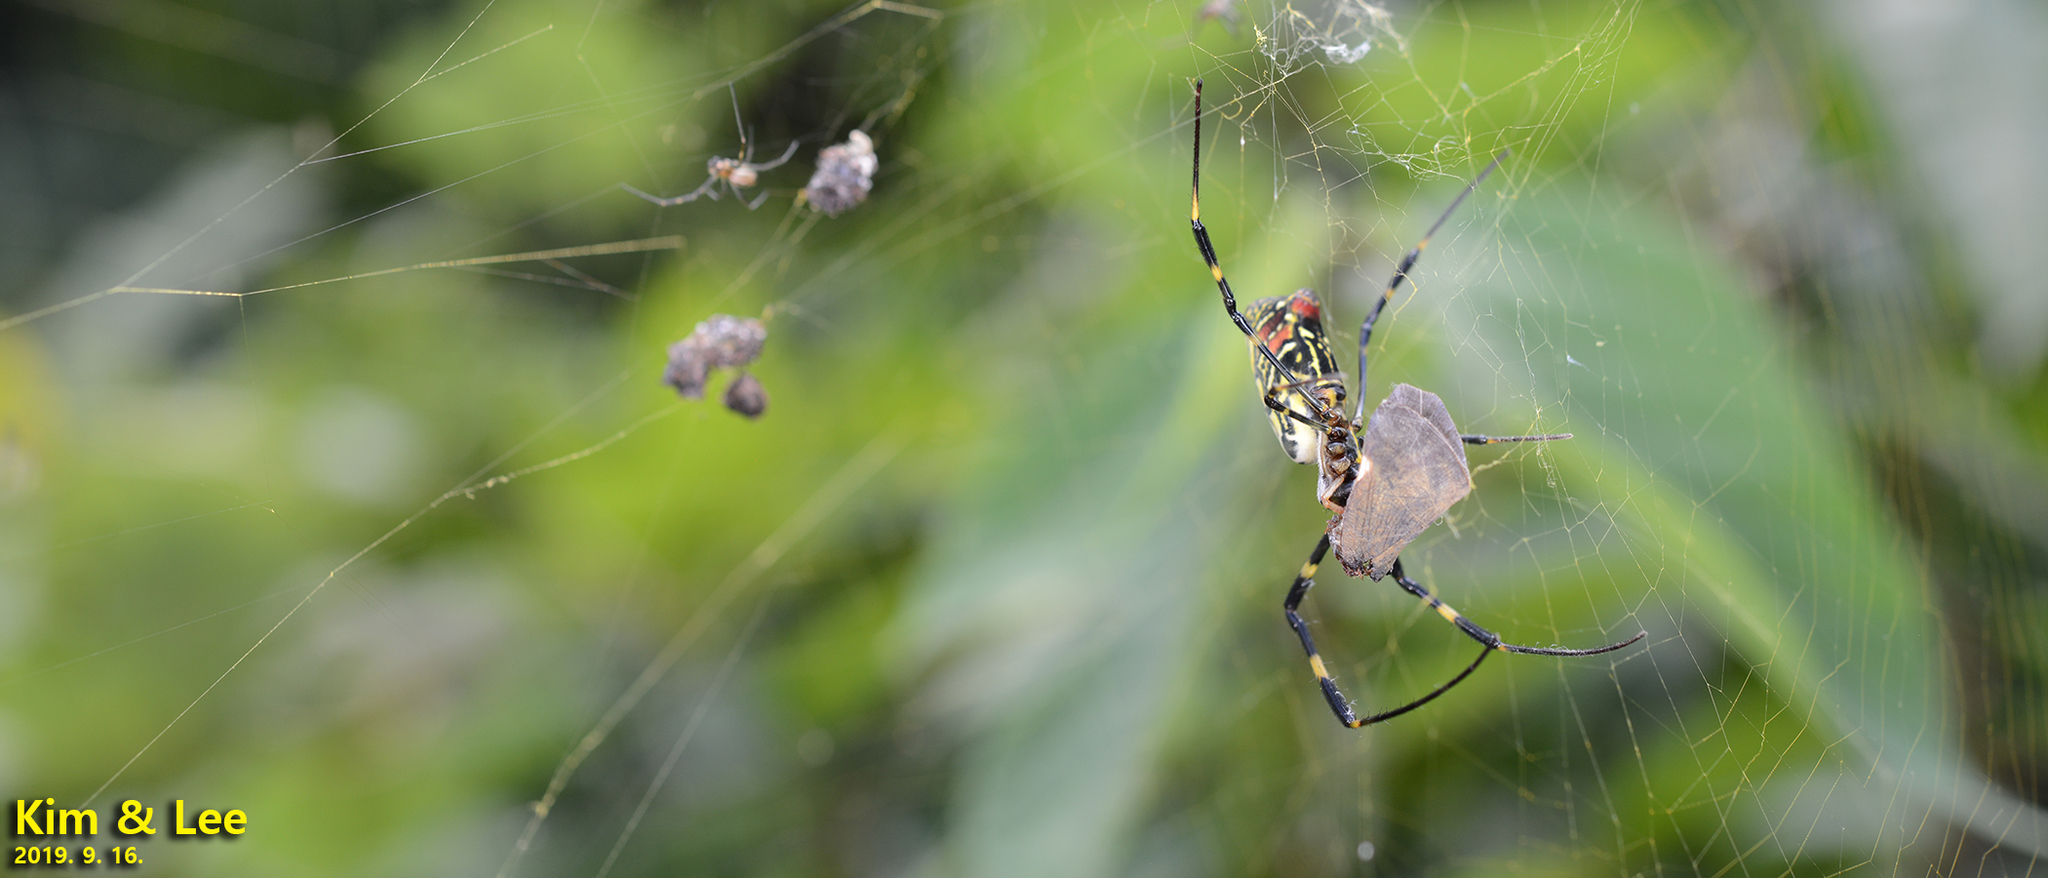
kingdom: Animalia
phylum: Arthropoda
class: Arachnida
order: Araneae
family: Araneidae
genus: Trichonephila
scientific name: Trichonephila clavata
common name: Jorō spider
